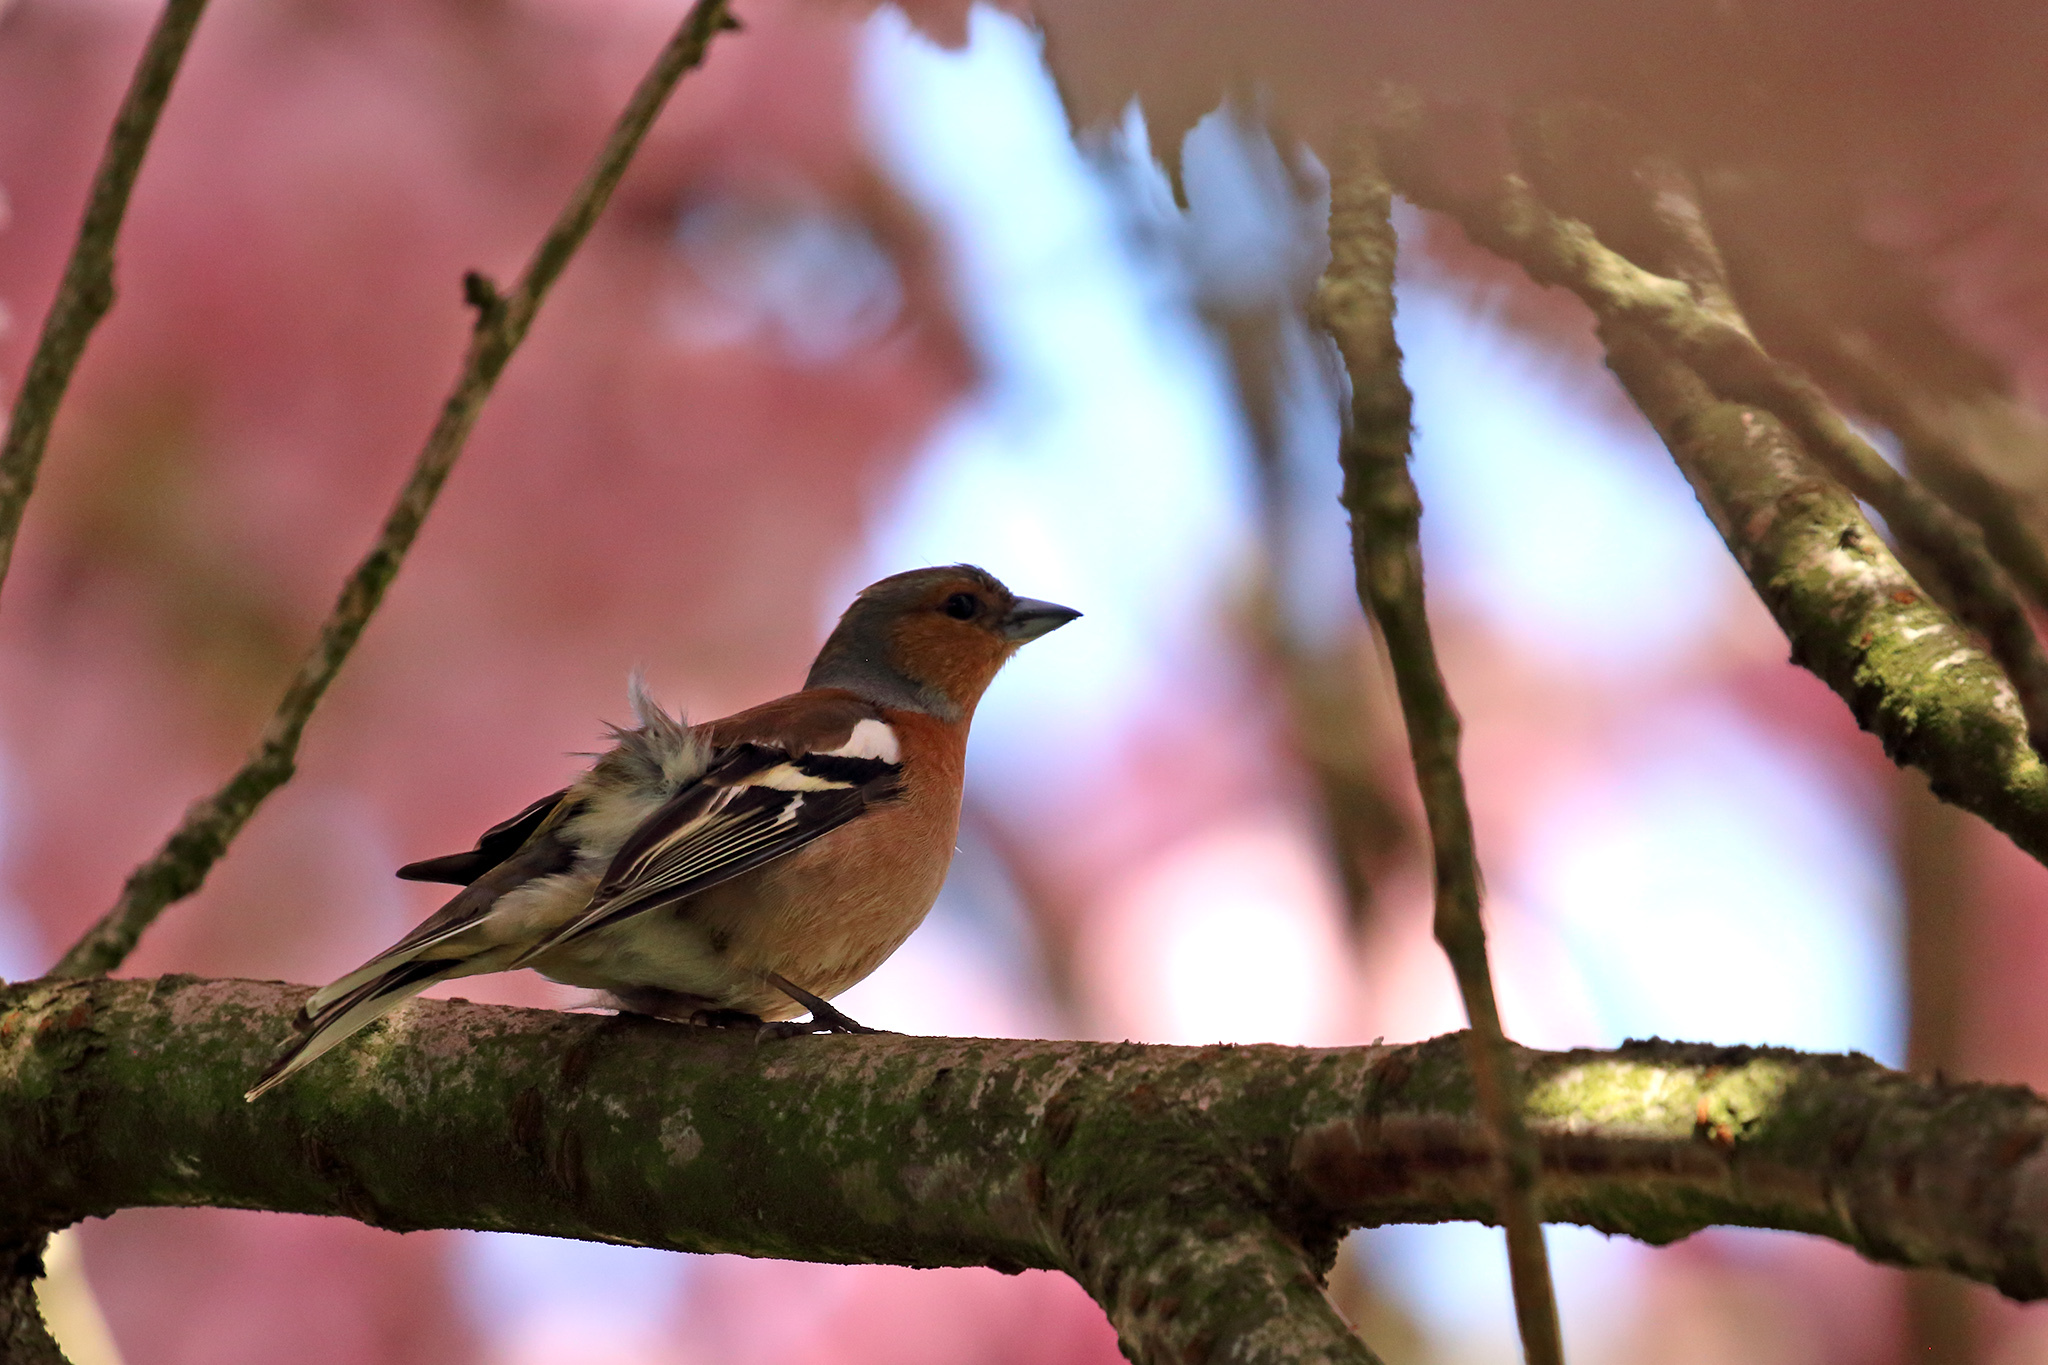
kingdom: Animalia
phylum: Chordata
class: Aves
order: Passeriformes
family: Fringillidae
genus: Fringilla
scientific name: Fringilla coelebs
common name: Common chaffinch
